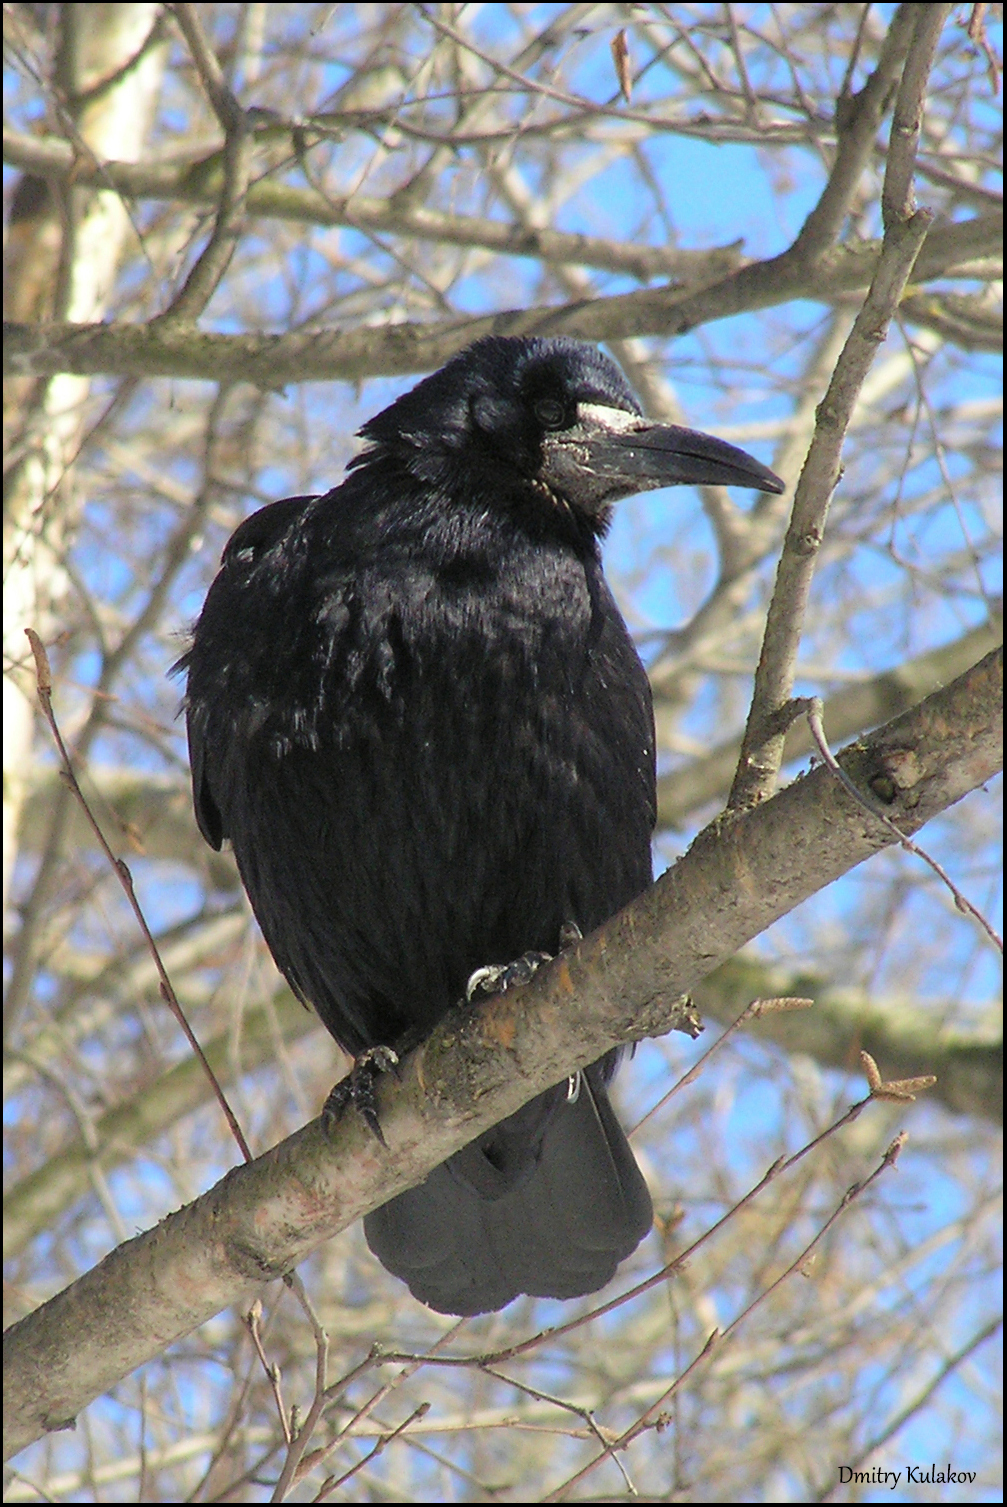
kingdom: Animalia
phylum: Chordata
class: Aves
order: Passeriformes
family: Corvidae
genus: Corvus
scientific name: Corvus frugilegus
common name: Rook
